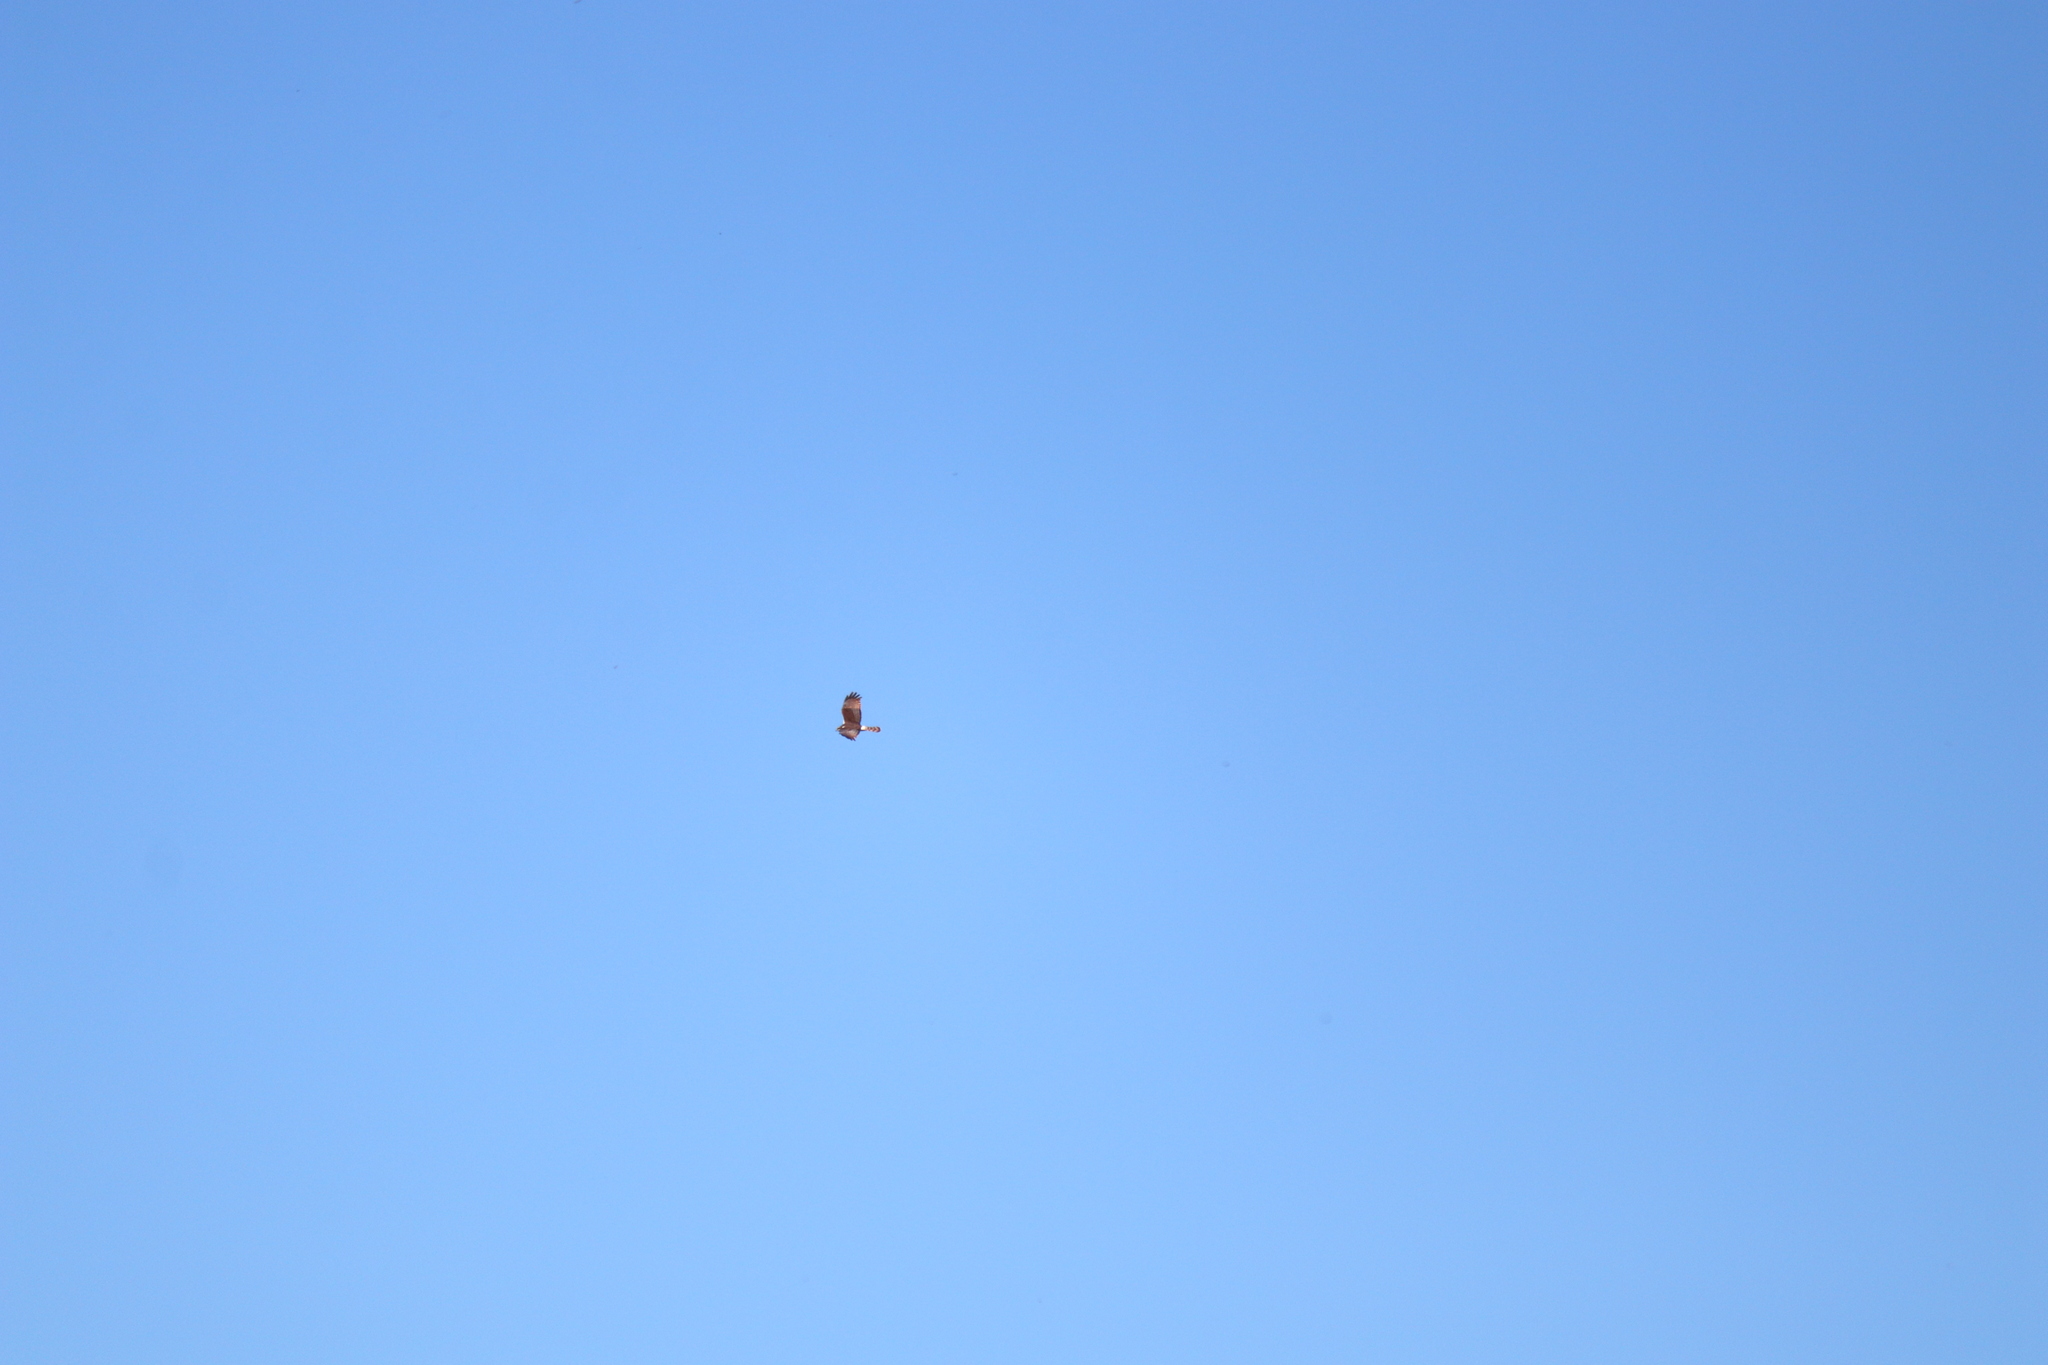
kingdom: Animalia
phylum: Chordata
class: Aves
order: Accipitriformes
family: Accipitridae
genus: Circus
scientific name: Circus buffoni
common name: Long-winged harrier
